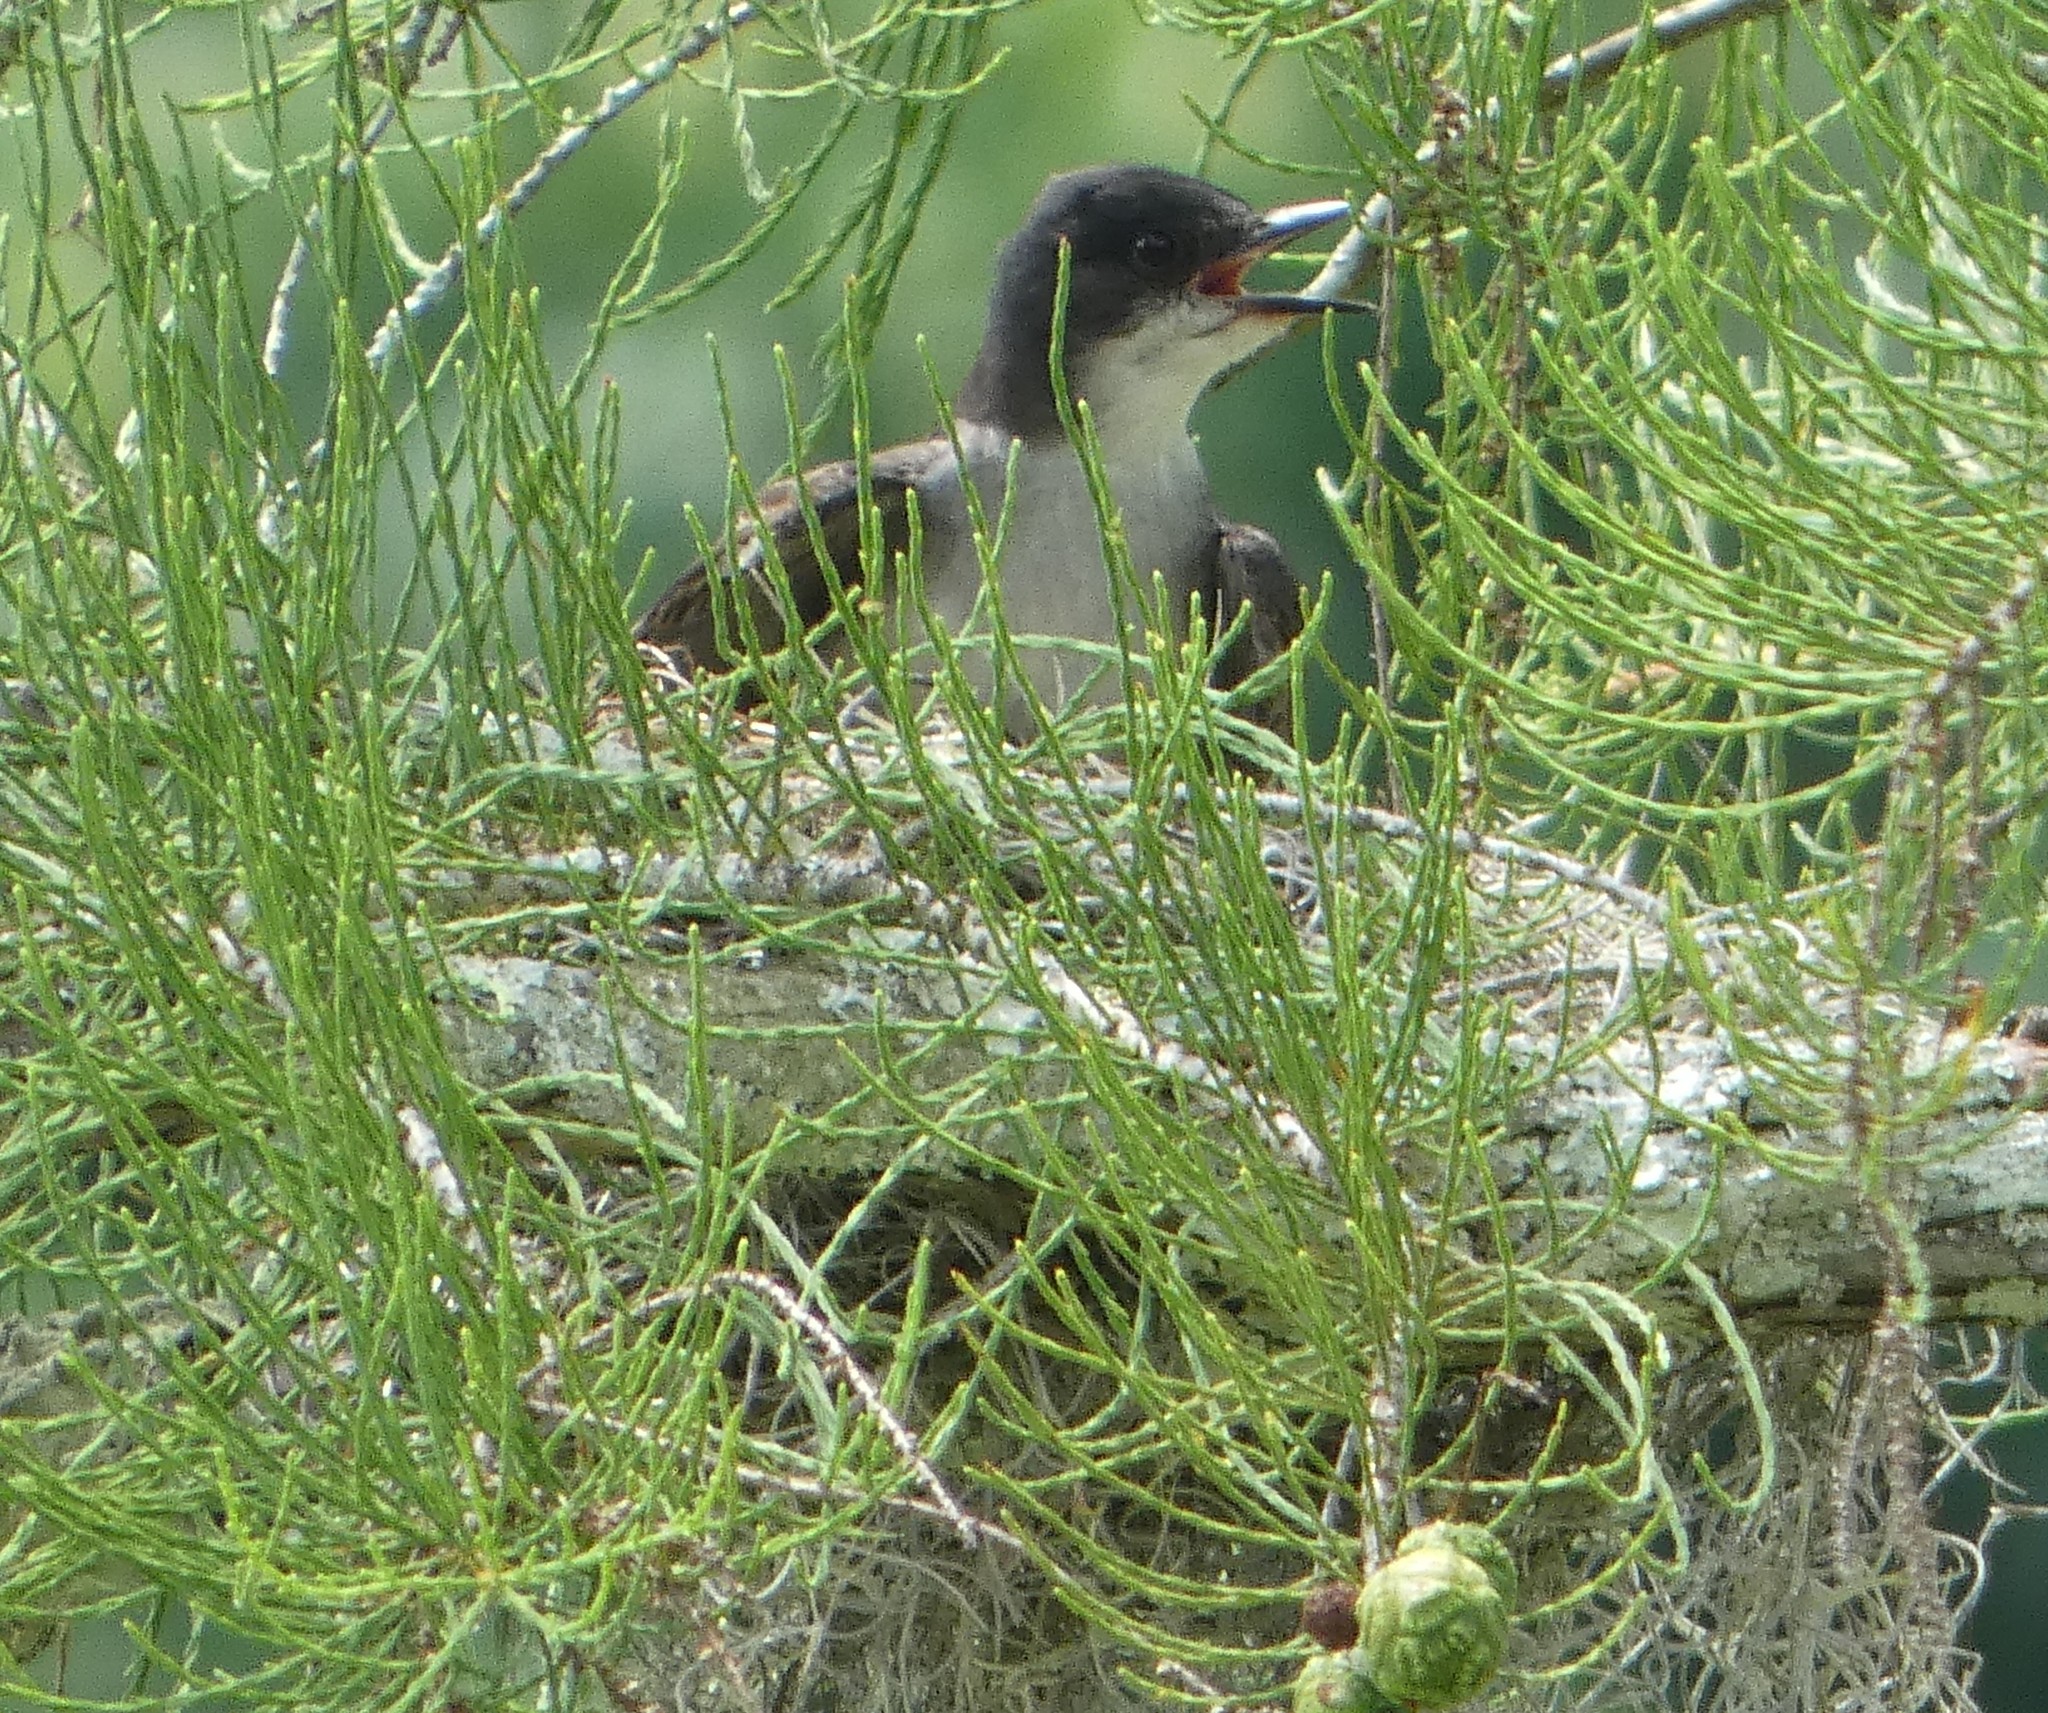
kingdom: Animalia
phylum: Chordata
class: Aves
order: Passeriformes
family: Tyrannidae
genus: Tyrannus
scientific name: Tyrannus tyrannus
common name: Eastern kingbird
